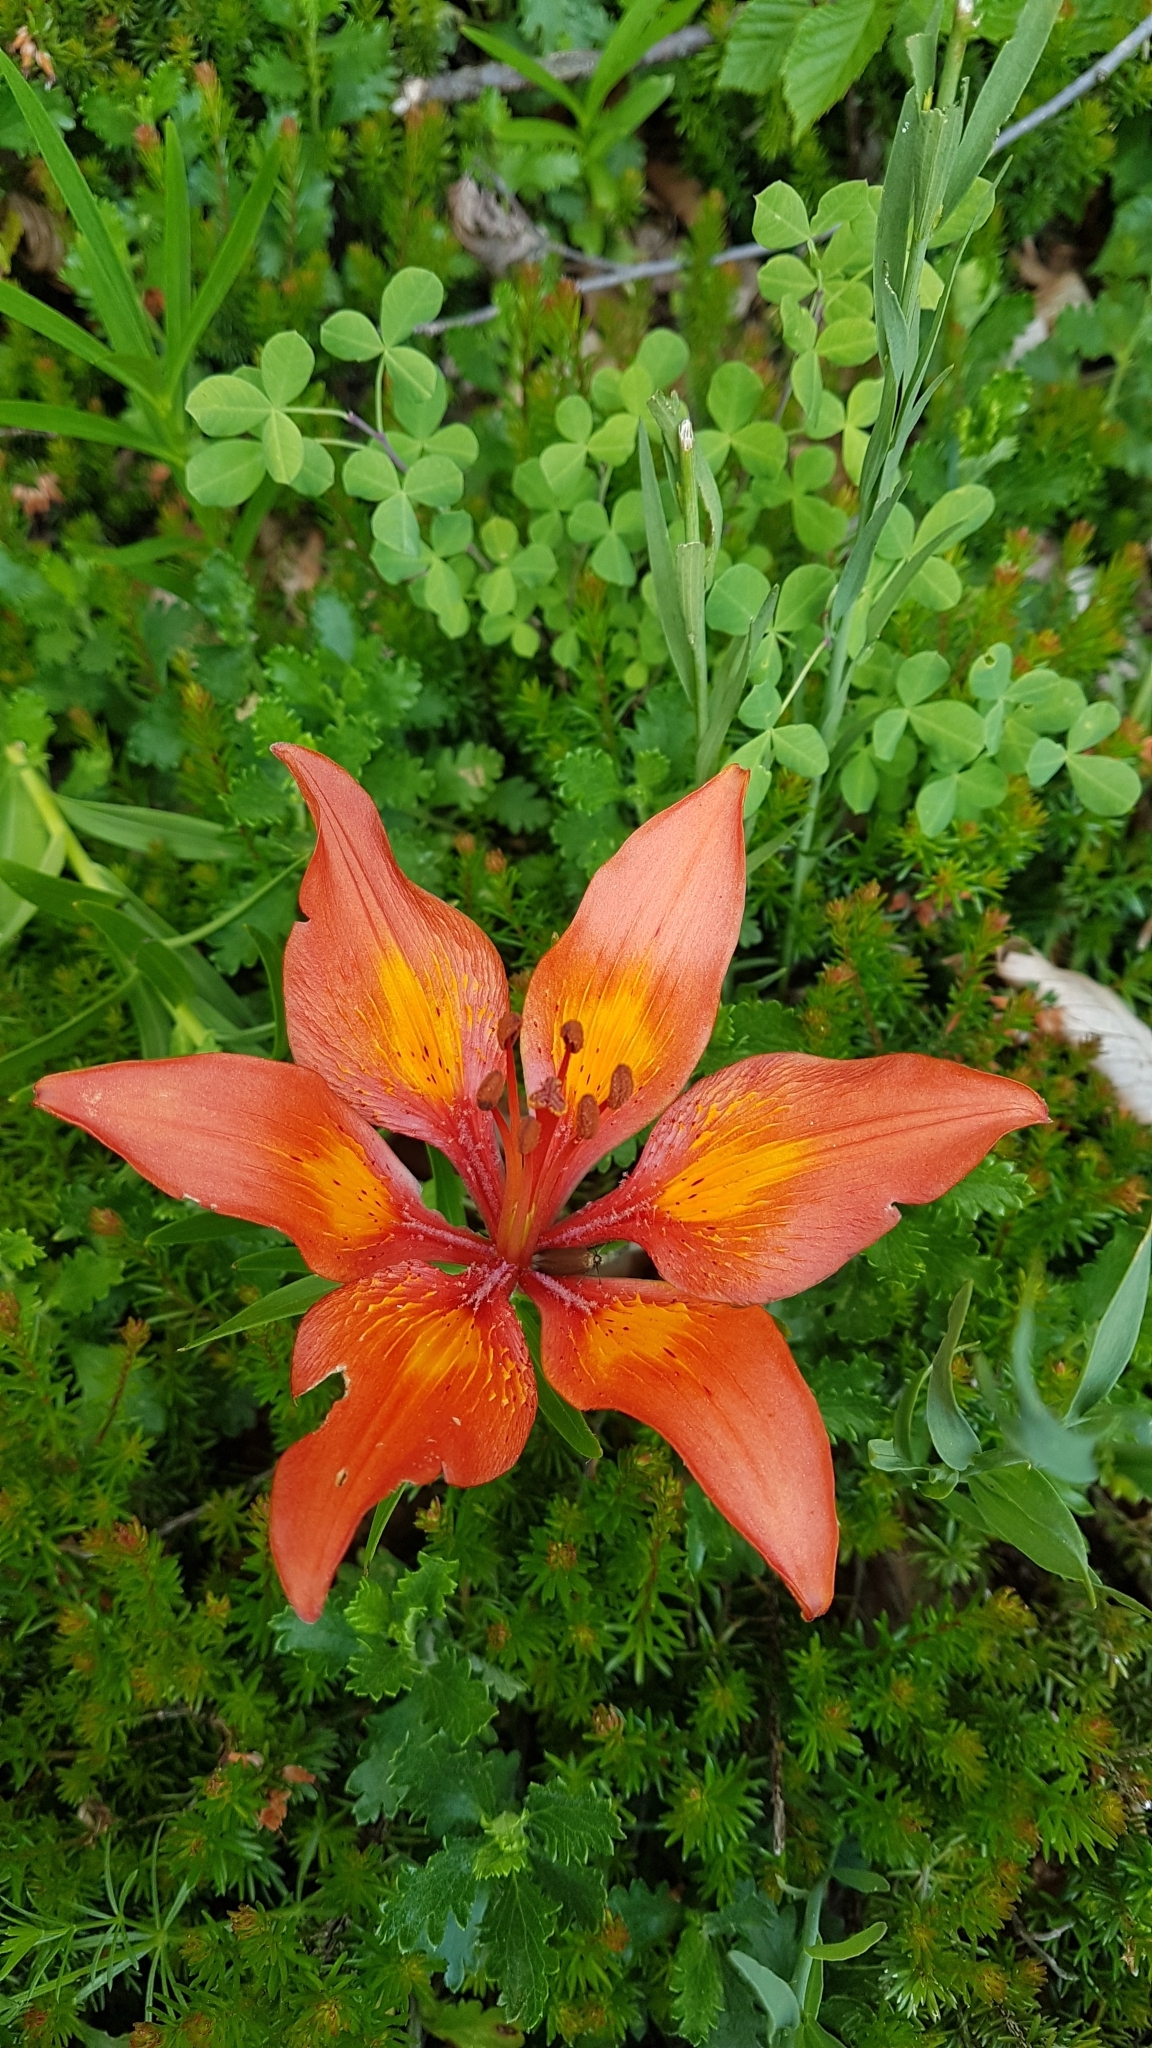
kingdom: Plantae
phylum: Tracheophyta
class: Liliopsida
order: Liliales
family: Liliaceae
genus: Lilium
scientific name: Lilium bulbiferum
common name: Orange lily
